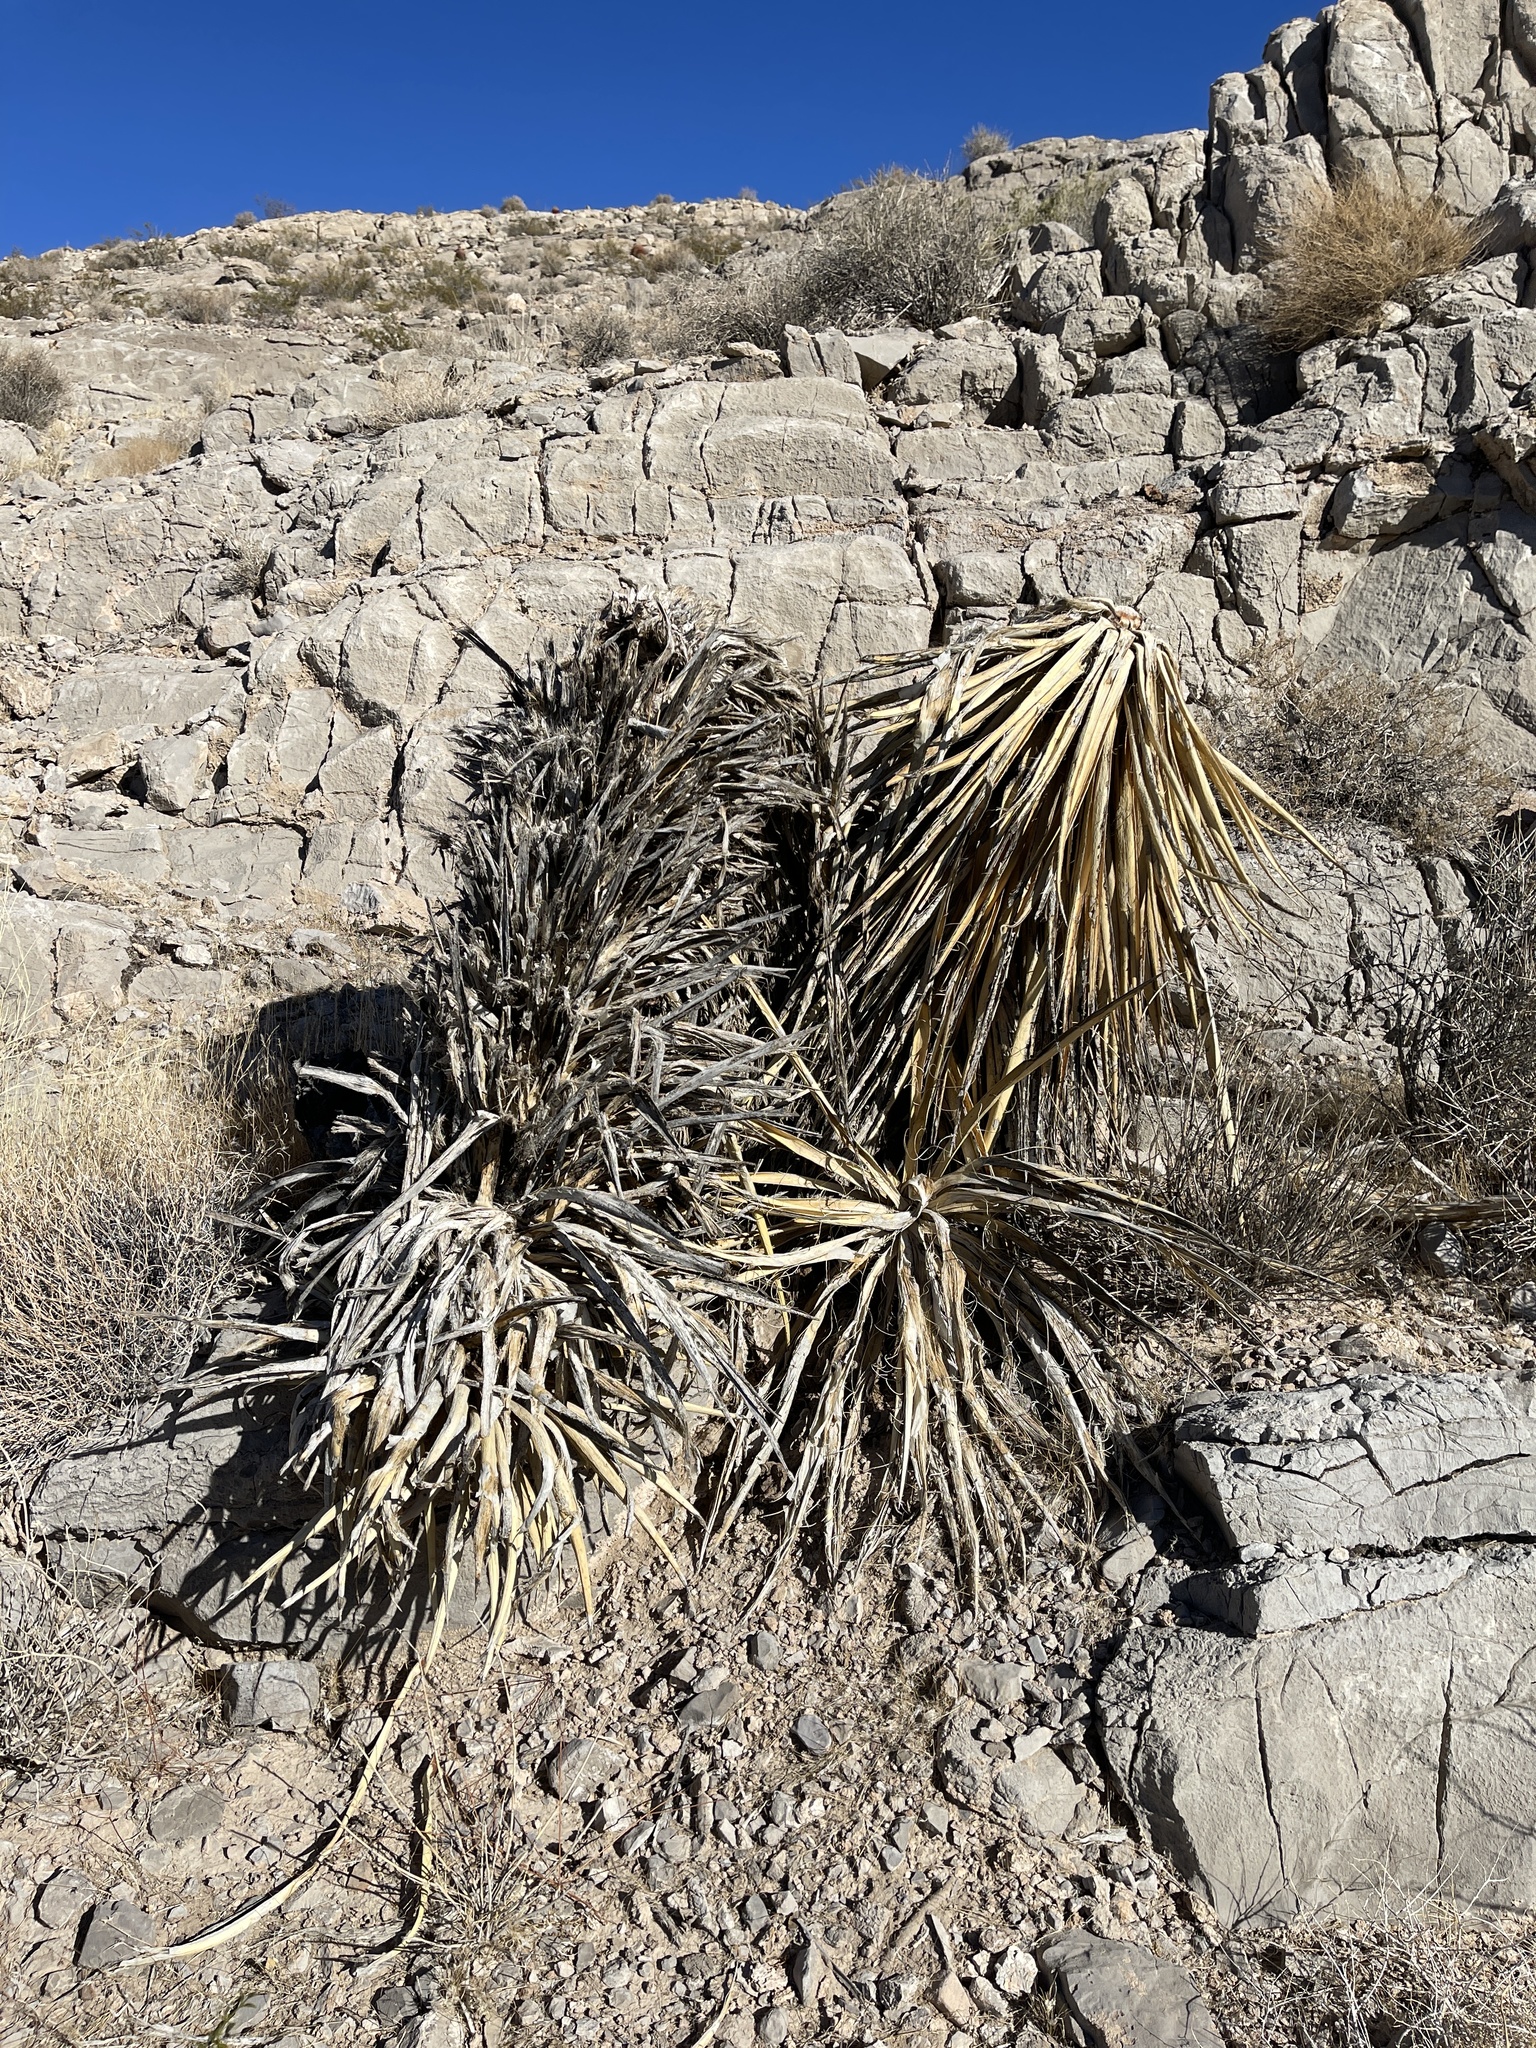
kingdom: Plantae
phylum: Tracheophyta
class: Liliopsida
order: Asparagales
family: Asparagaceae
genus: Yucca
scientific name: Yucca schidigera
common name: Mojave yucca
